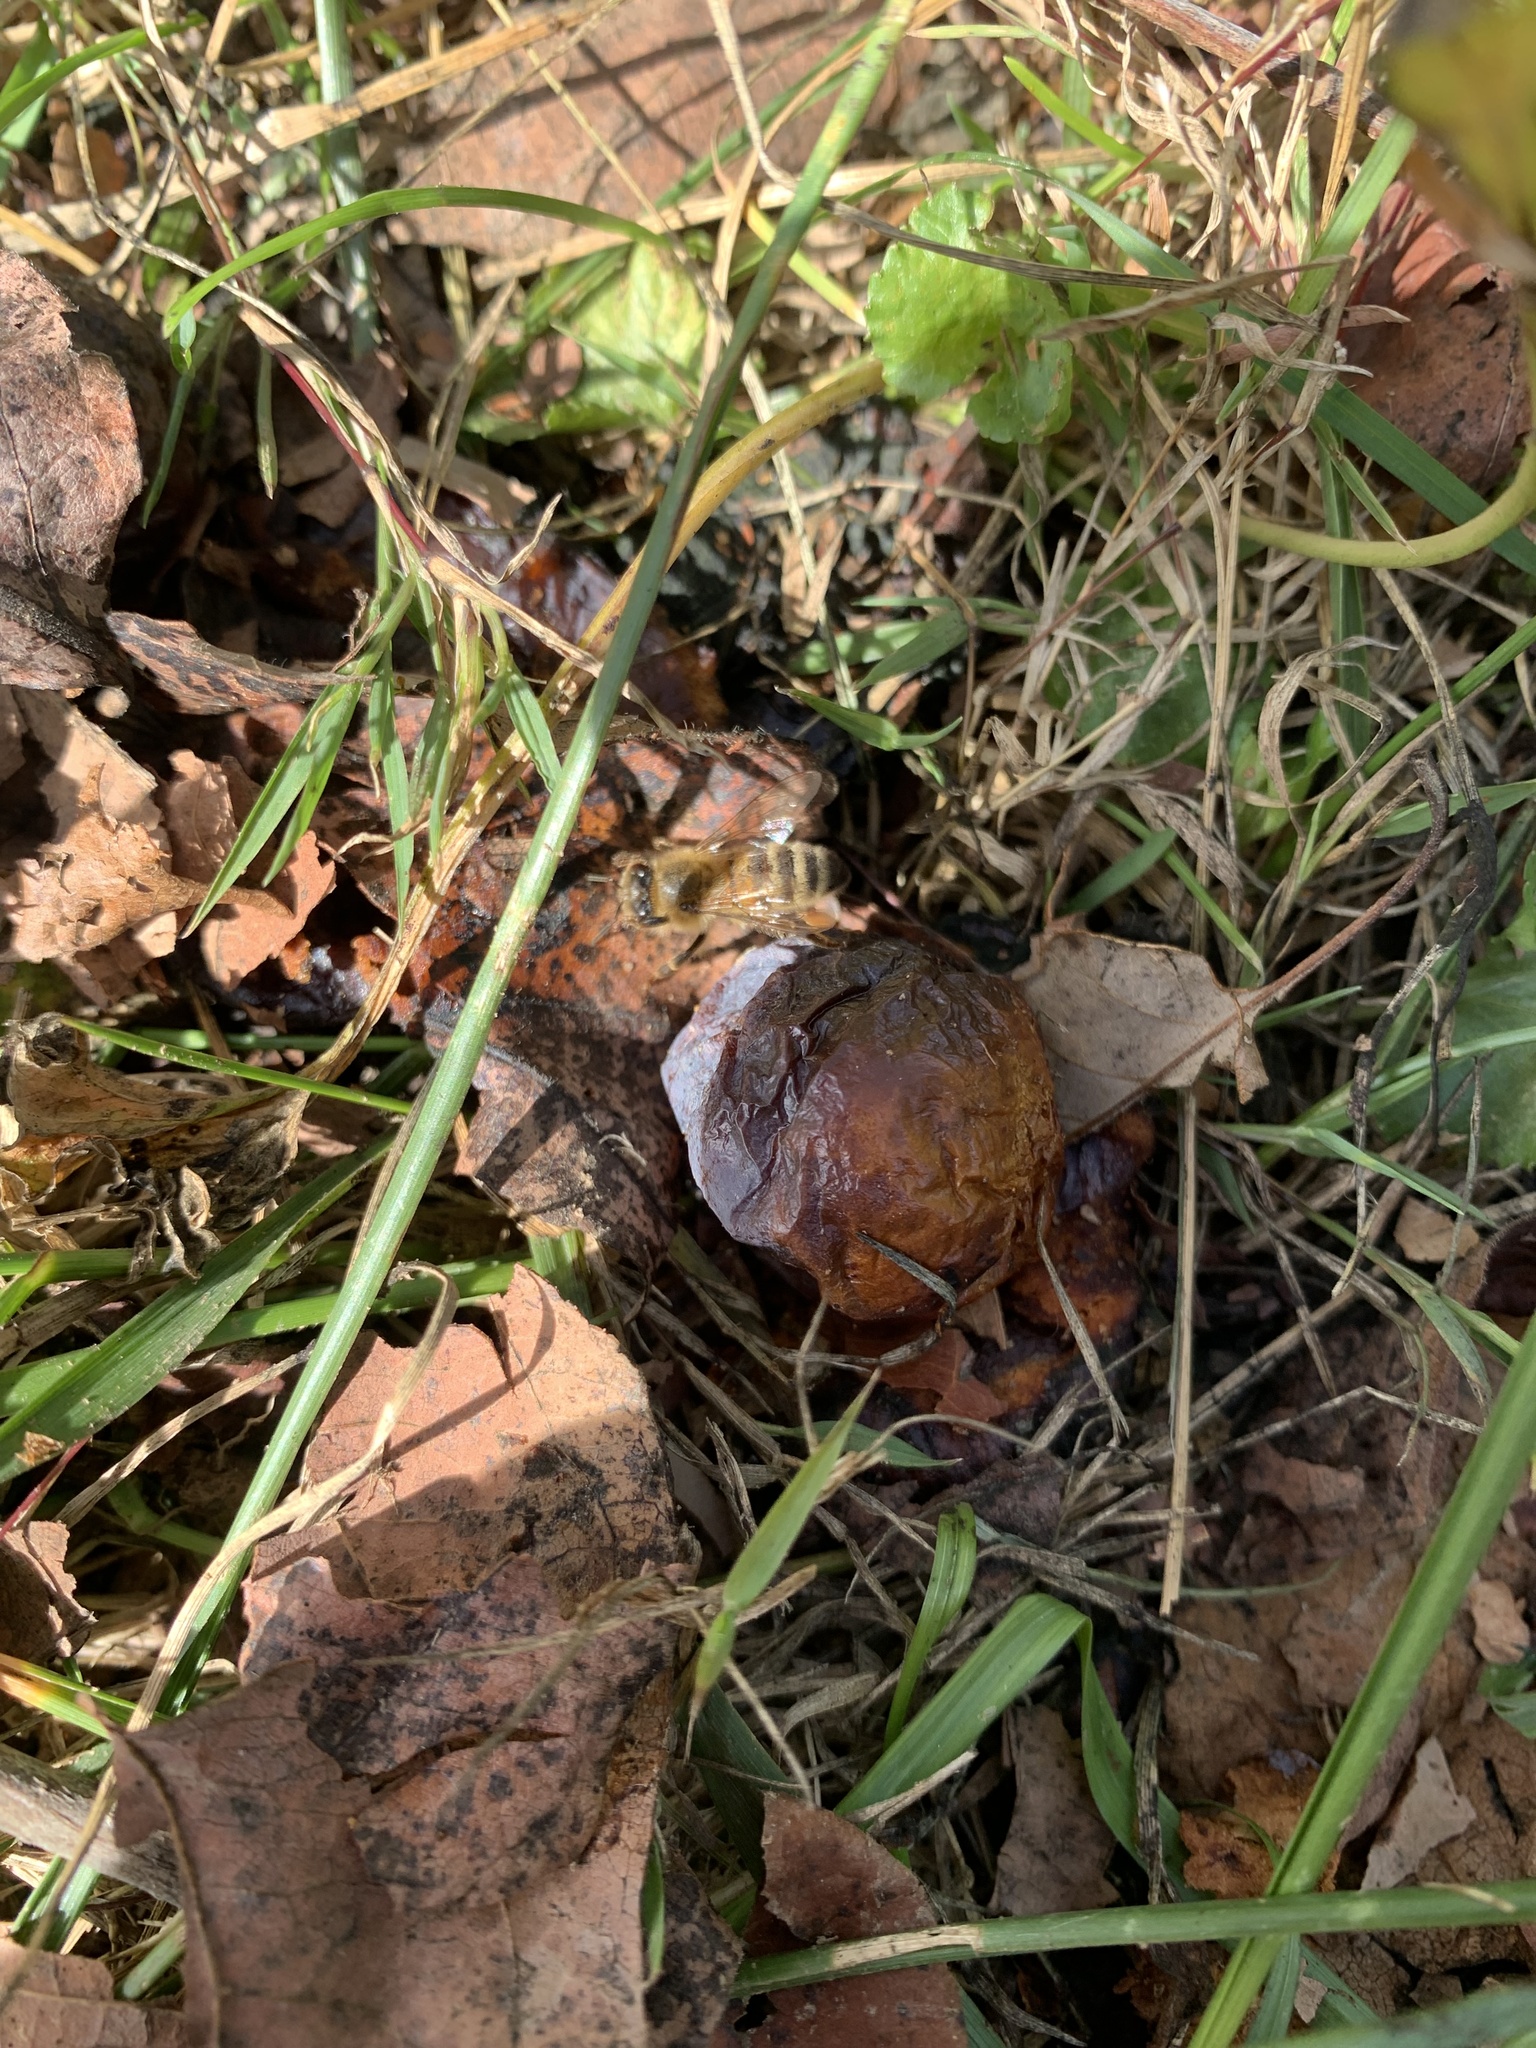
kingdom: Animalia
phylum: Arthropoda
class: Insecta
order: Hymenoptera
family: Apidae
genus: Apis
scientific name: Apis mellifera
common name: Honey bee
